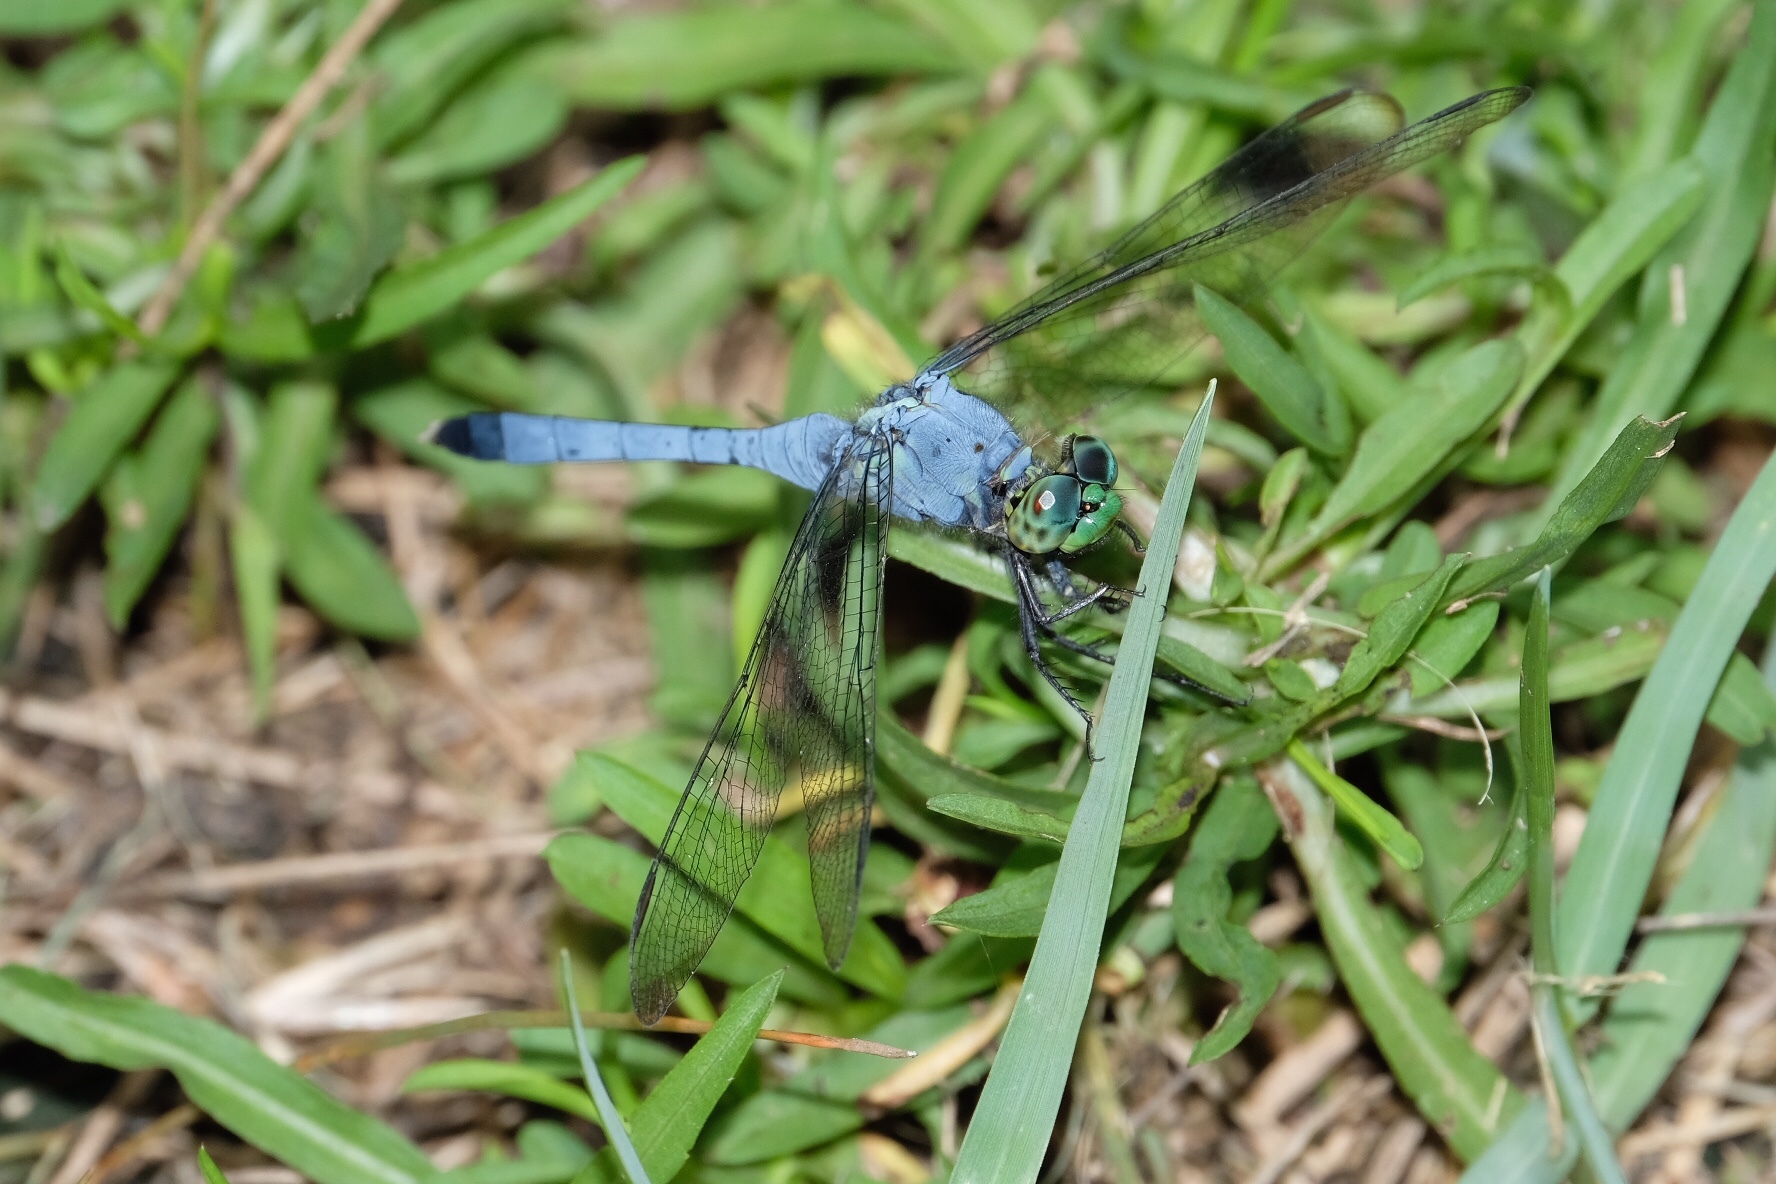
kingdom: Animalia
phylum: Arthropoda
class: Insecta
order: Odonata
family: Libellulidae
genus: Erythemis
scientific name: Erythemis simplicicollis
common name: Eastern pondhawk
